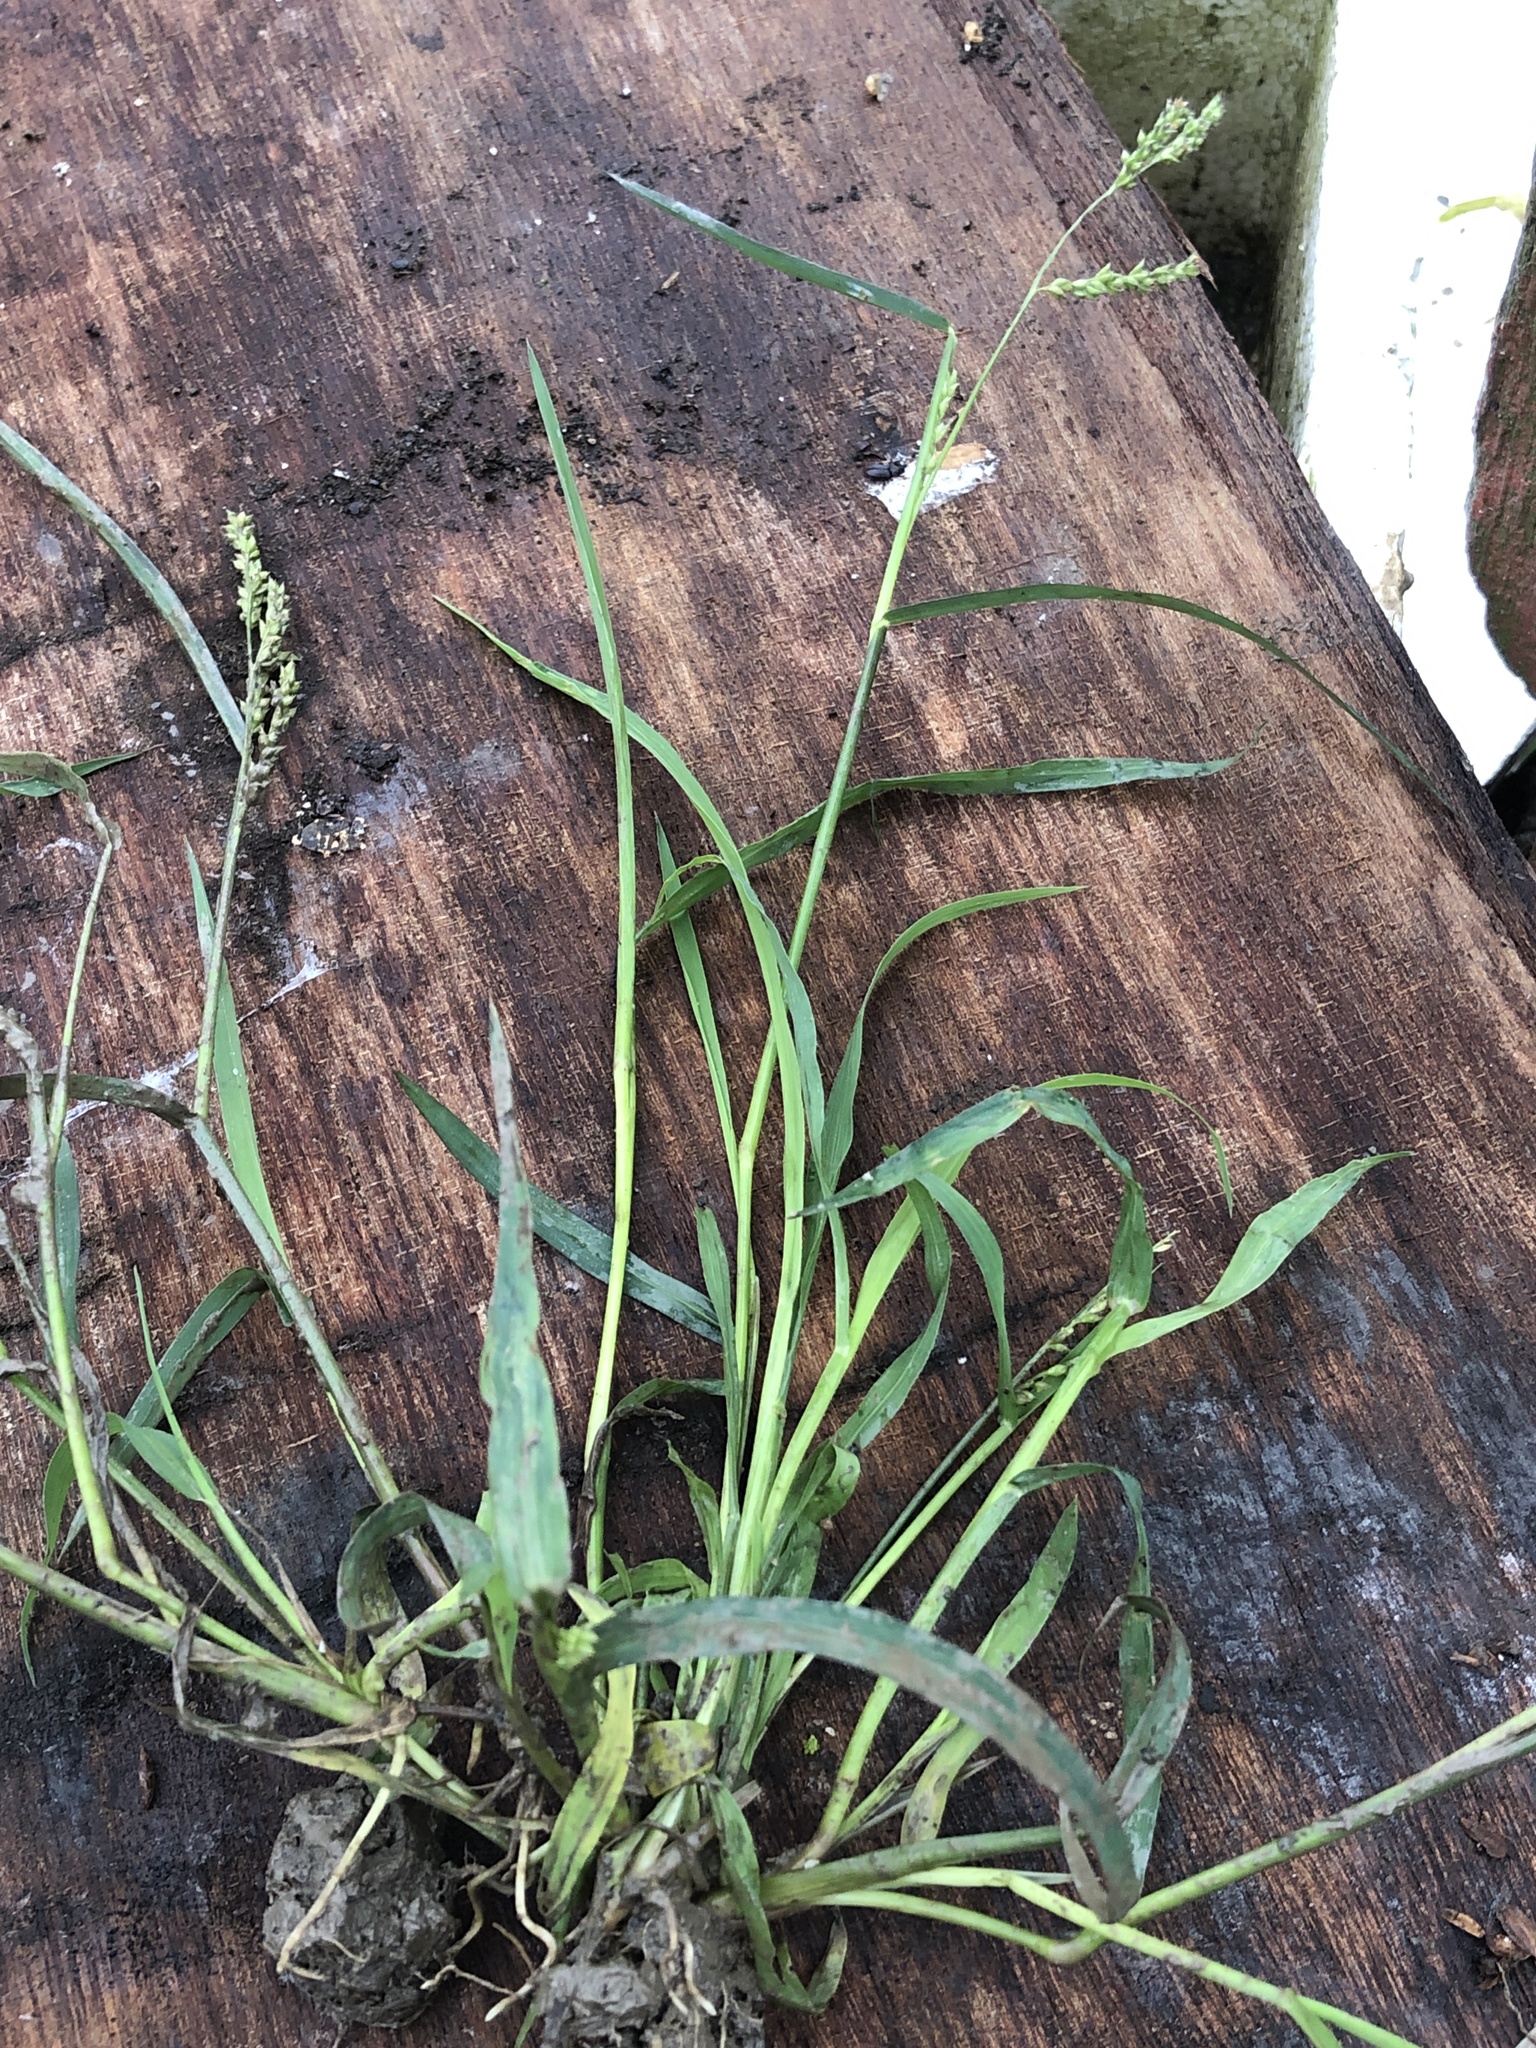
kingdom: Plantae
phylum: Tracheophyta
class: Liliopsida
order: Poales
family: Poaceae
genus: Echinochloa
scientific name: Echinochloa colonum
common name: Jungle rice
